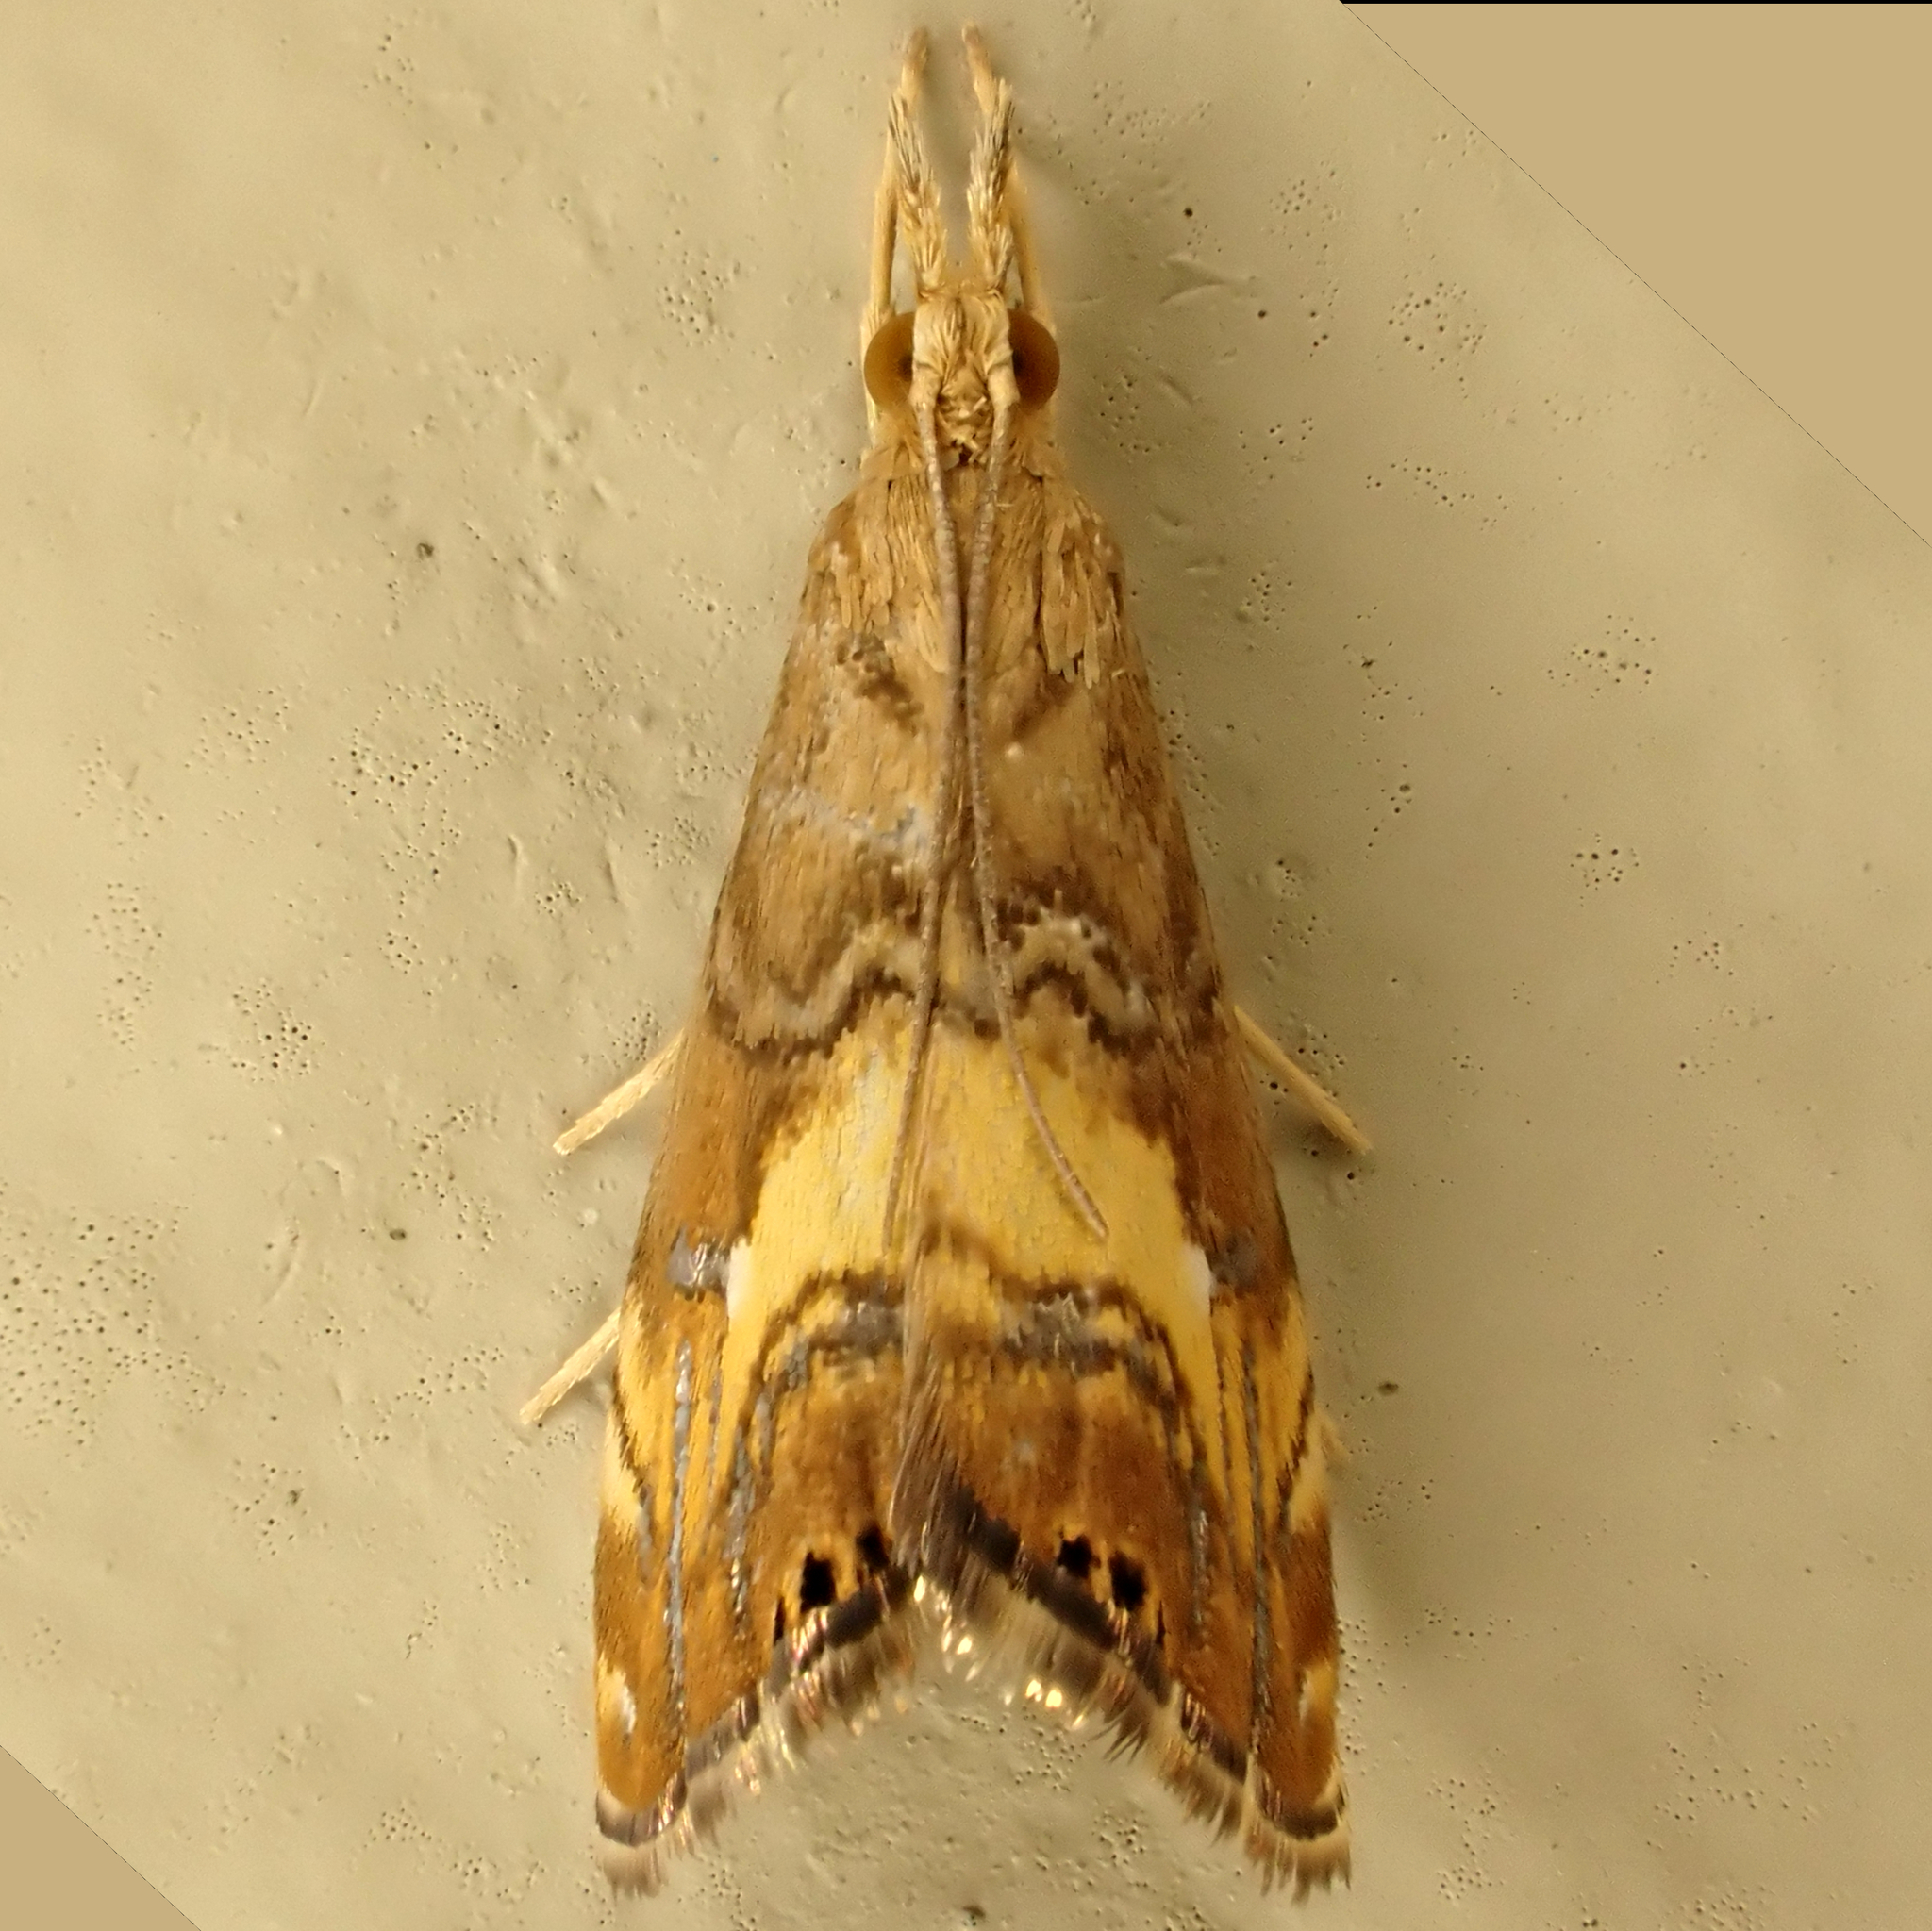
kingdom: Animalia
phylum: Arthropoda
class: Insecta
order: Lepidoptera
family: Crambidae
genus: Glaucocharis
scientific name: Glaucocharis chrysochyta
